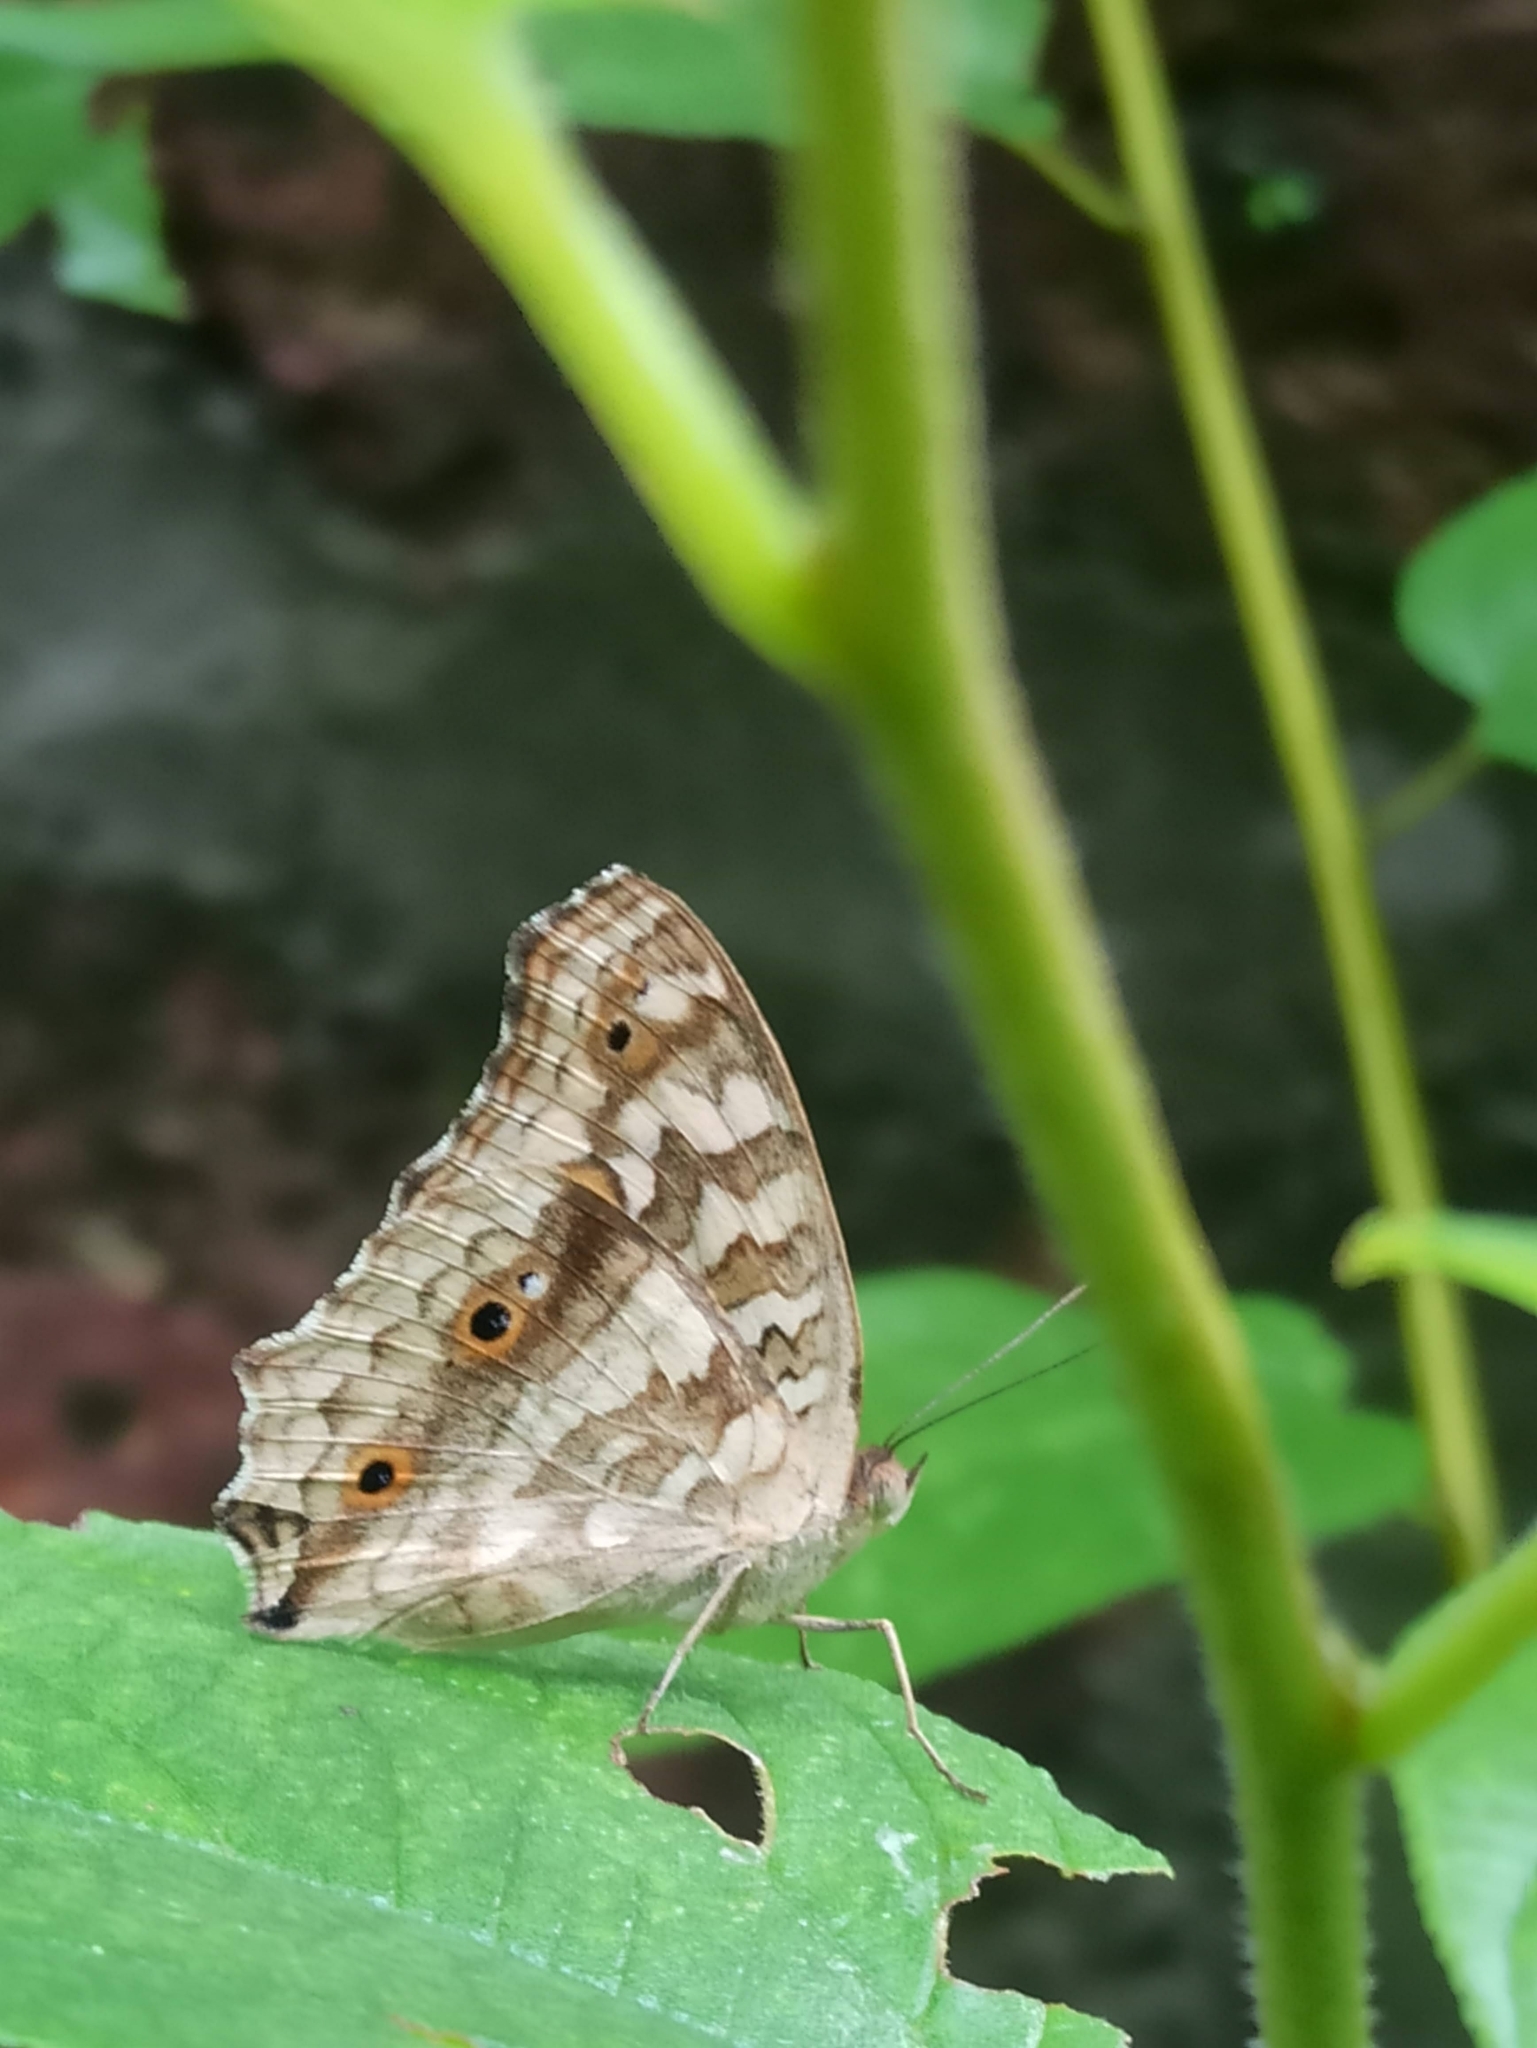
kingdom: Animalia
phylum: Arthropoda
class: Insecta
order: Lepidoptera
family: Nymphalidae
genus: Junonia
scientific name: Junonia lemonias
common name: Lemon pansy
